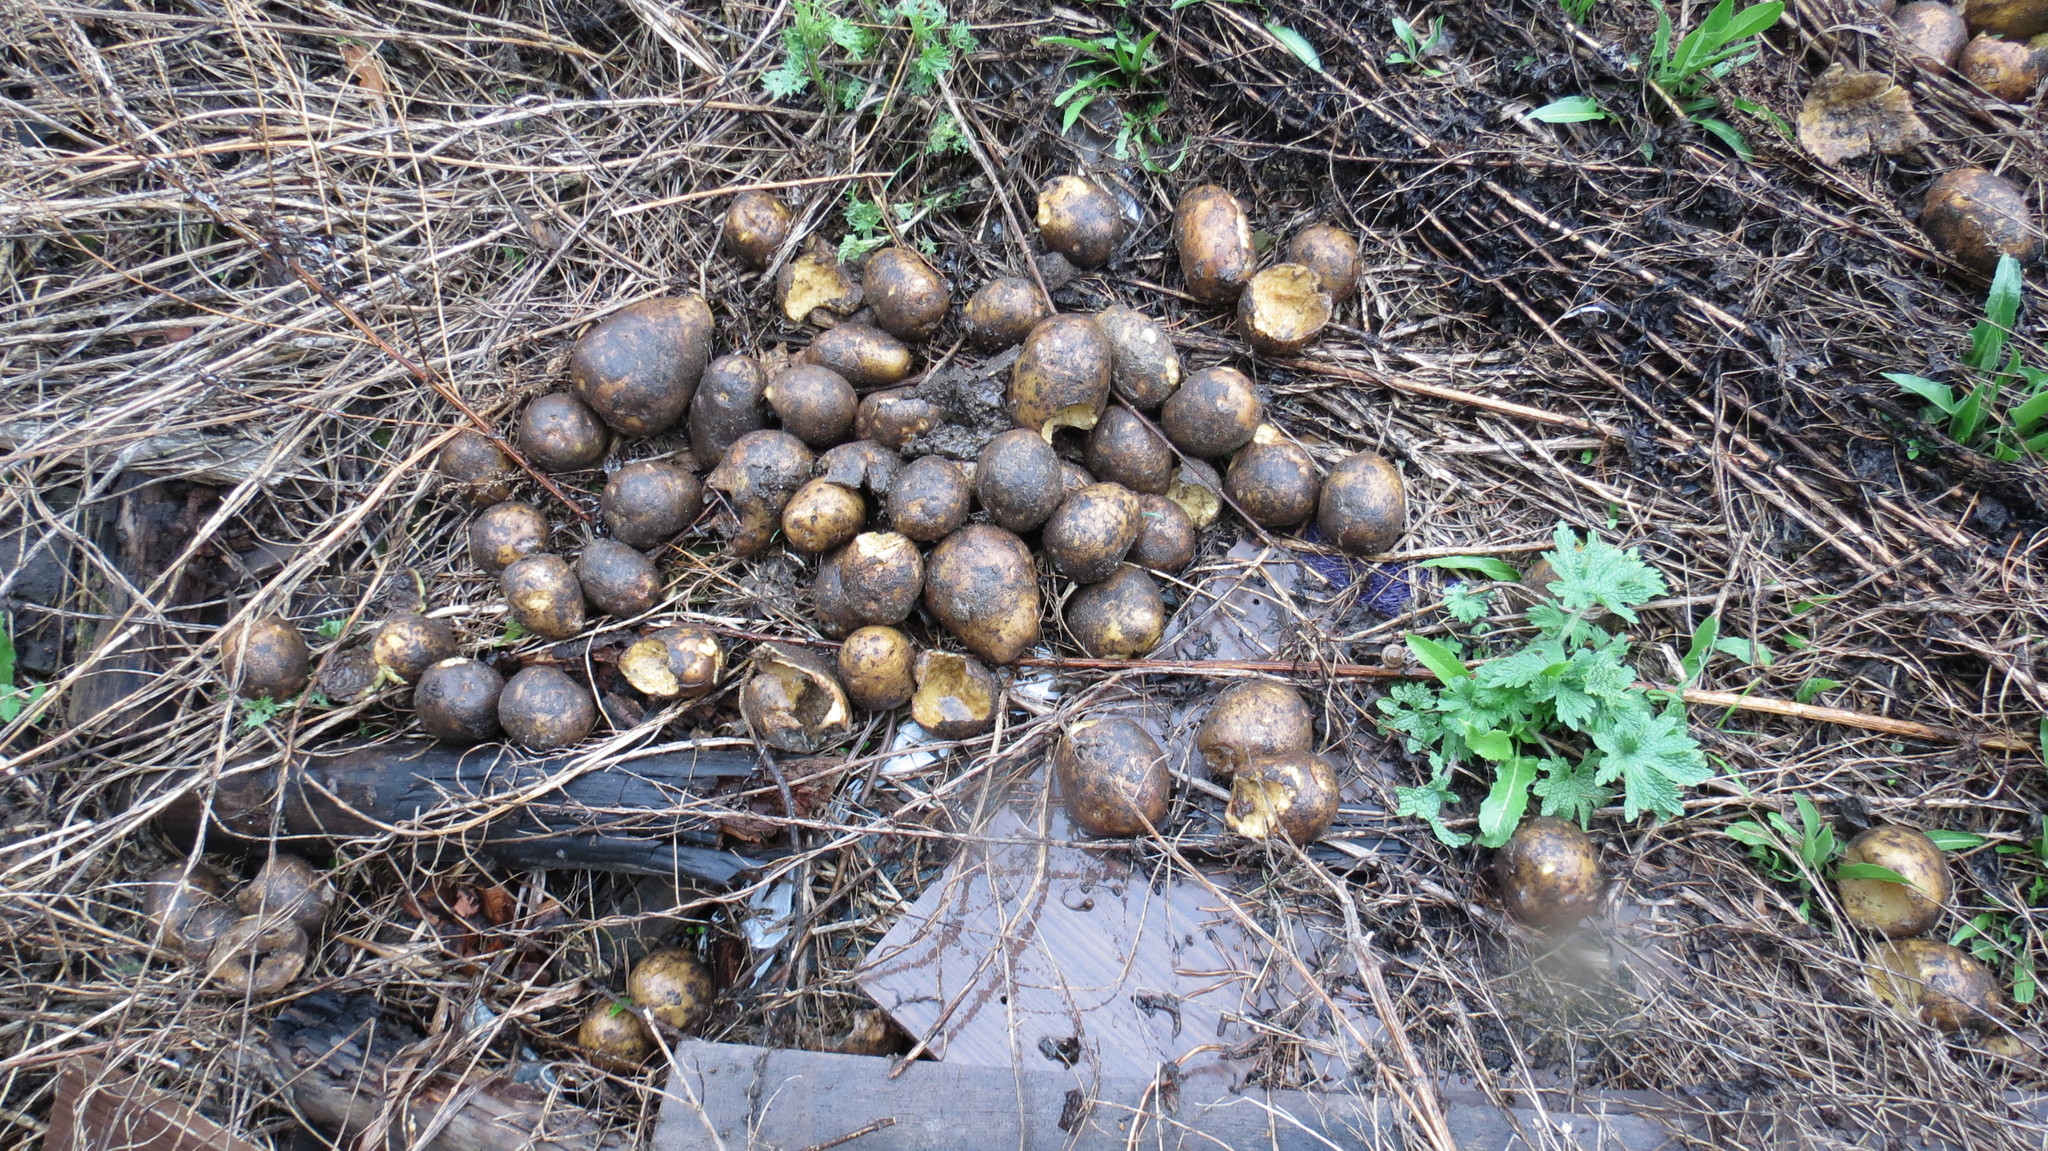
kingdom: Animalia
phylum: Mollusca
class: Gastropoda
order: Stylommatophora
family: Helicidae
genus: Helix
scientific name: Helix pomatia
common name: Roman snail
